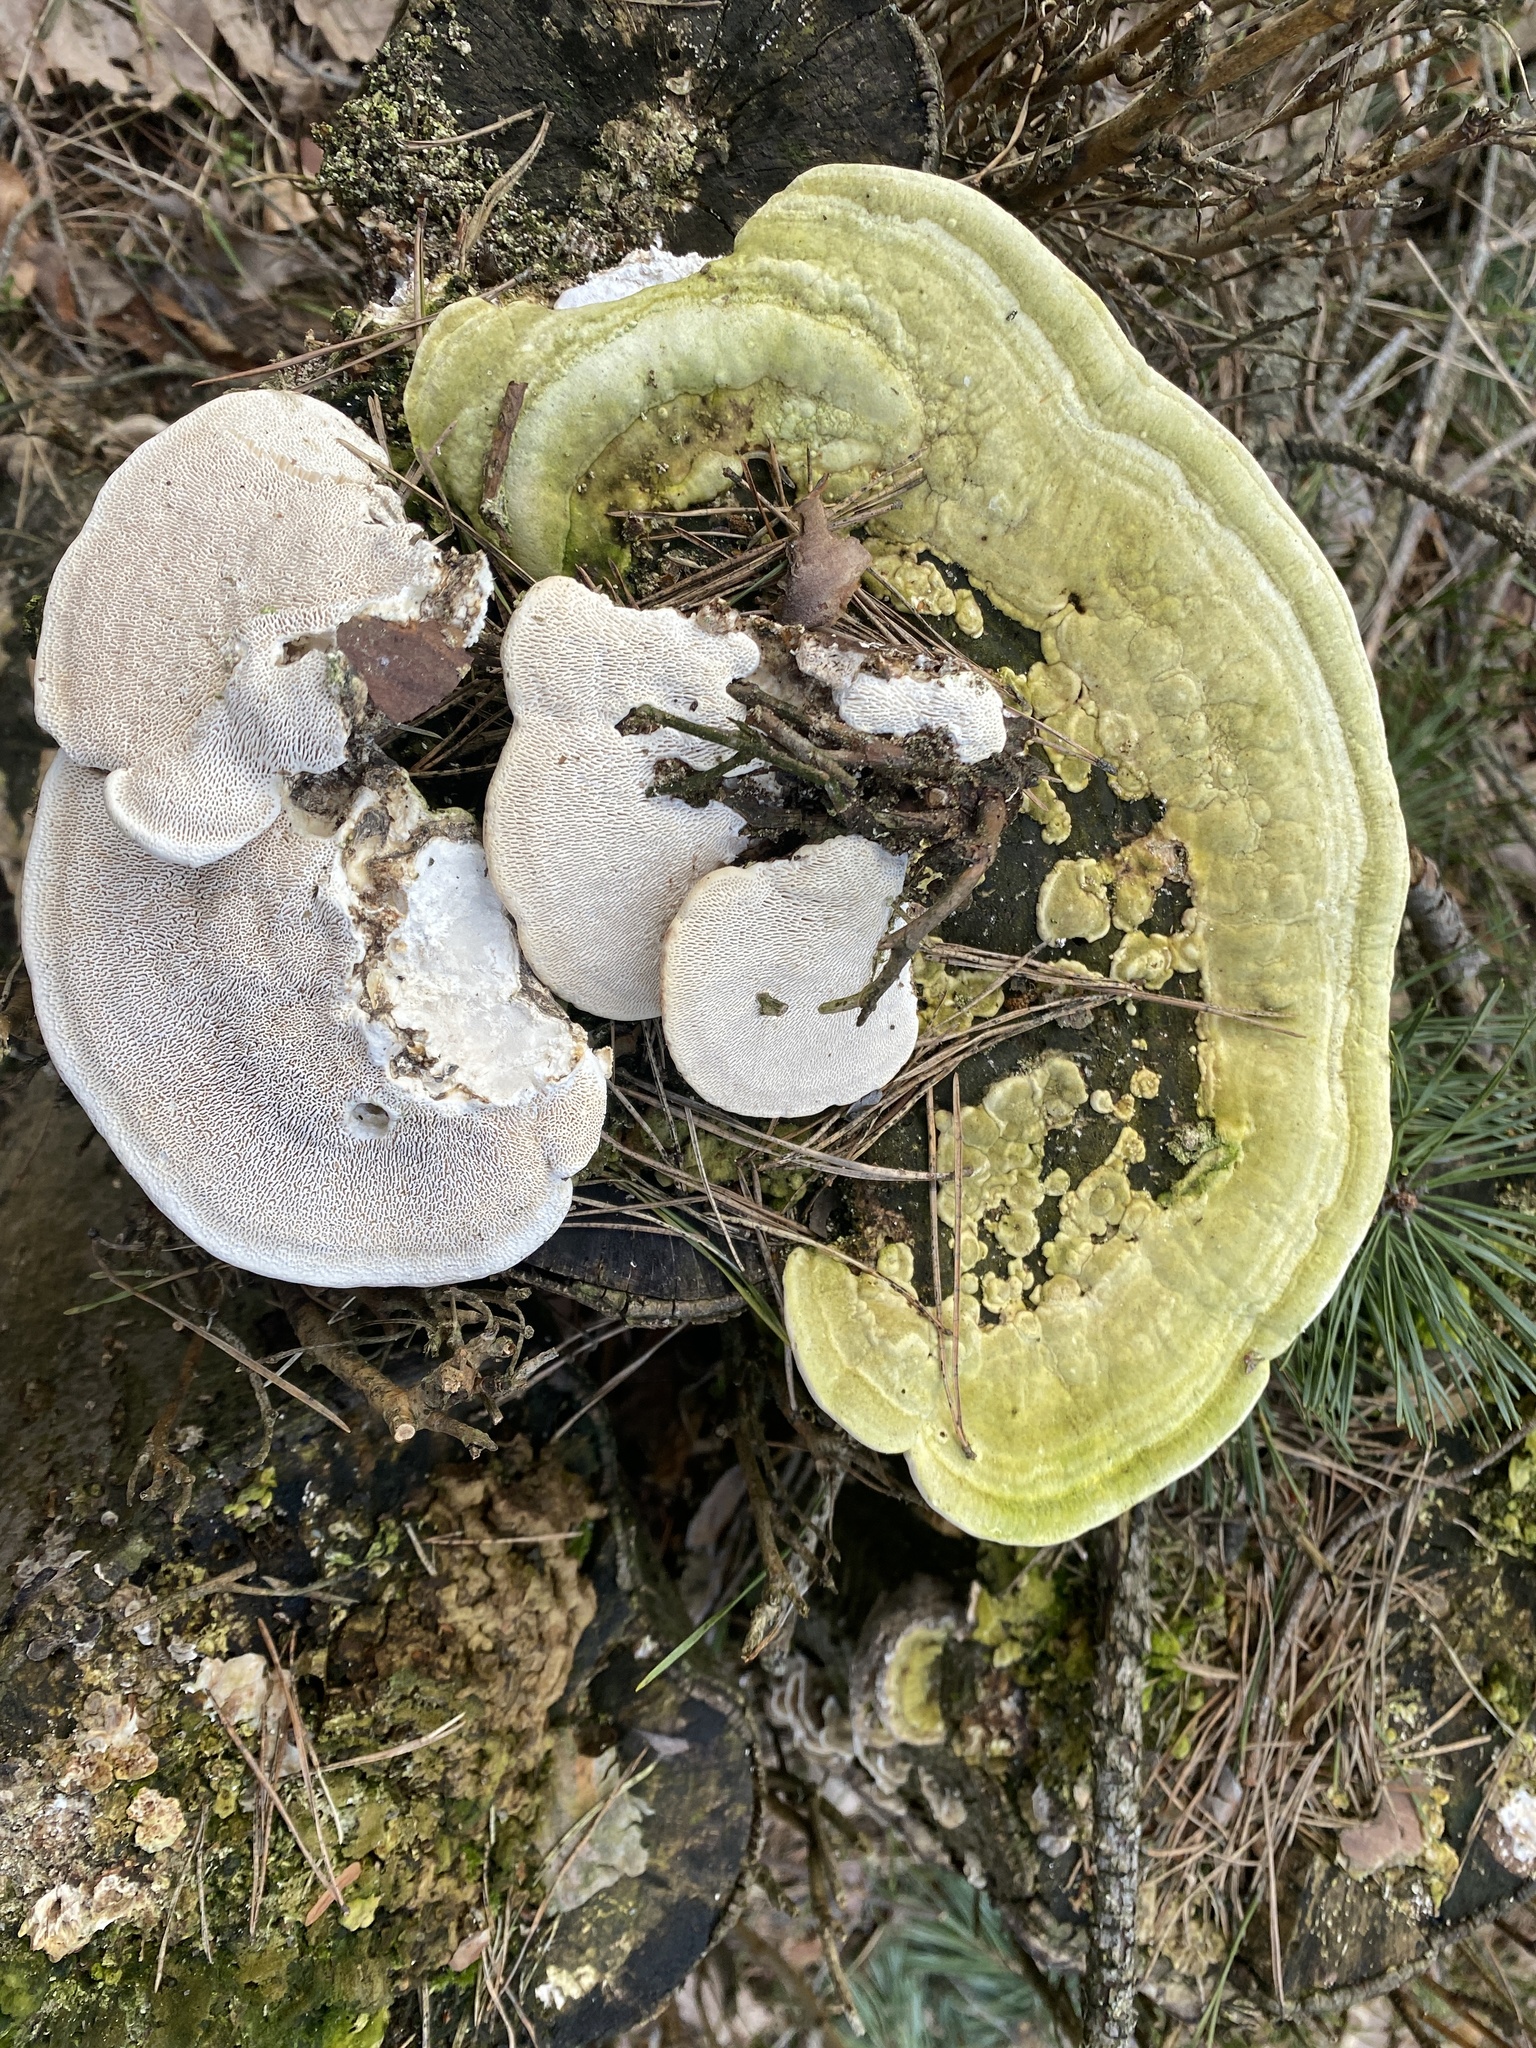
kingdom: Fungi
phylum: Basidiomycota
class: Agaricomycetes
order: Polyporales
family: Polyporaceae
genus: Trametes
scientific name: Trametes gibbosa
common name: Lumpy bracket
